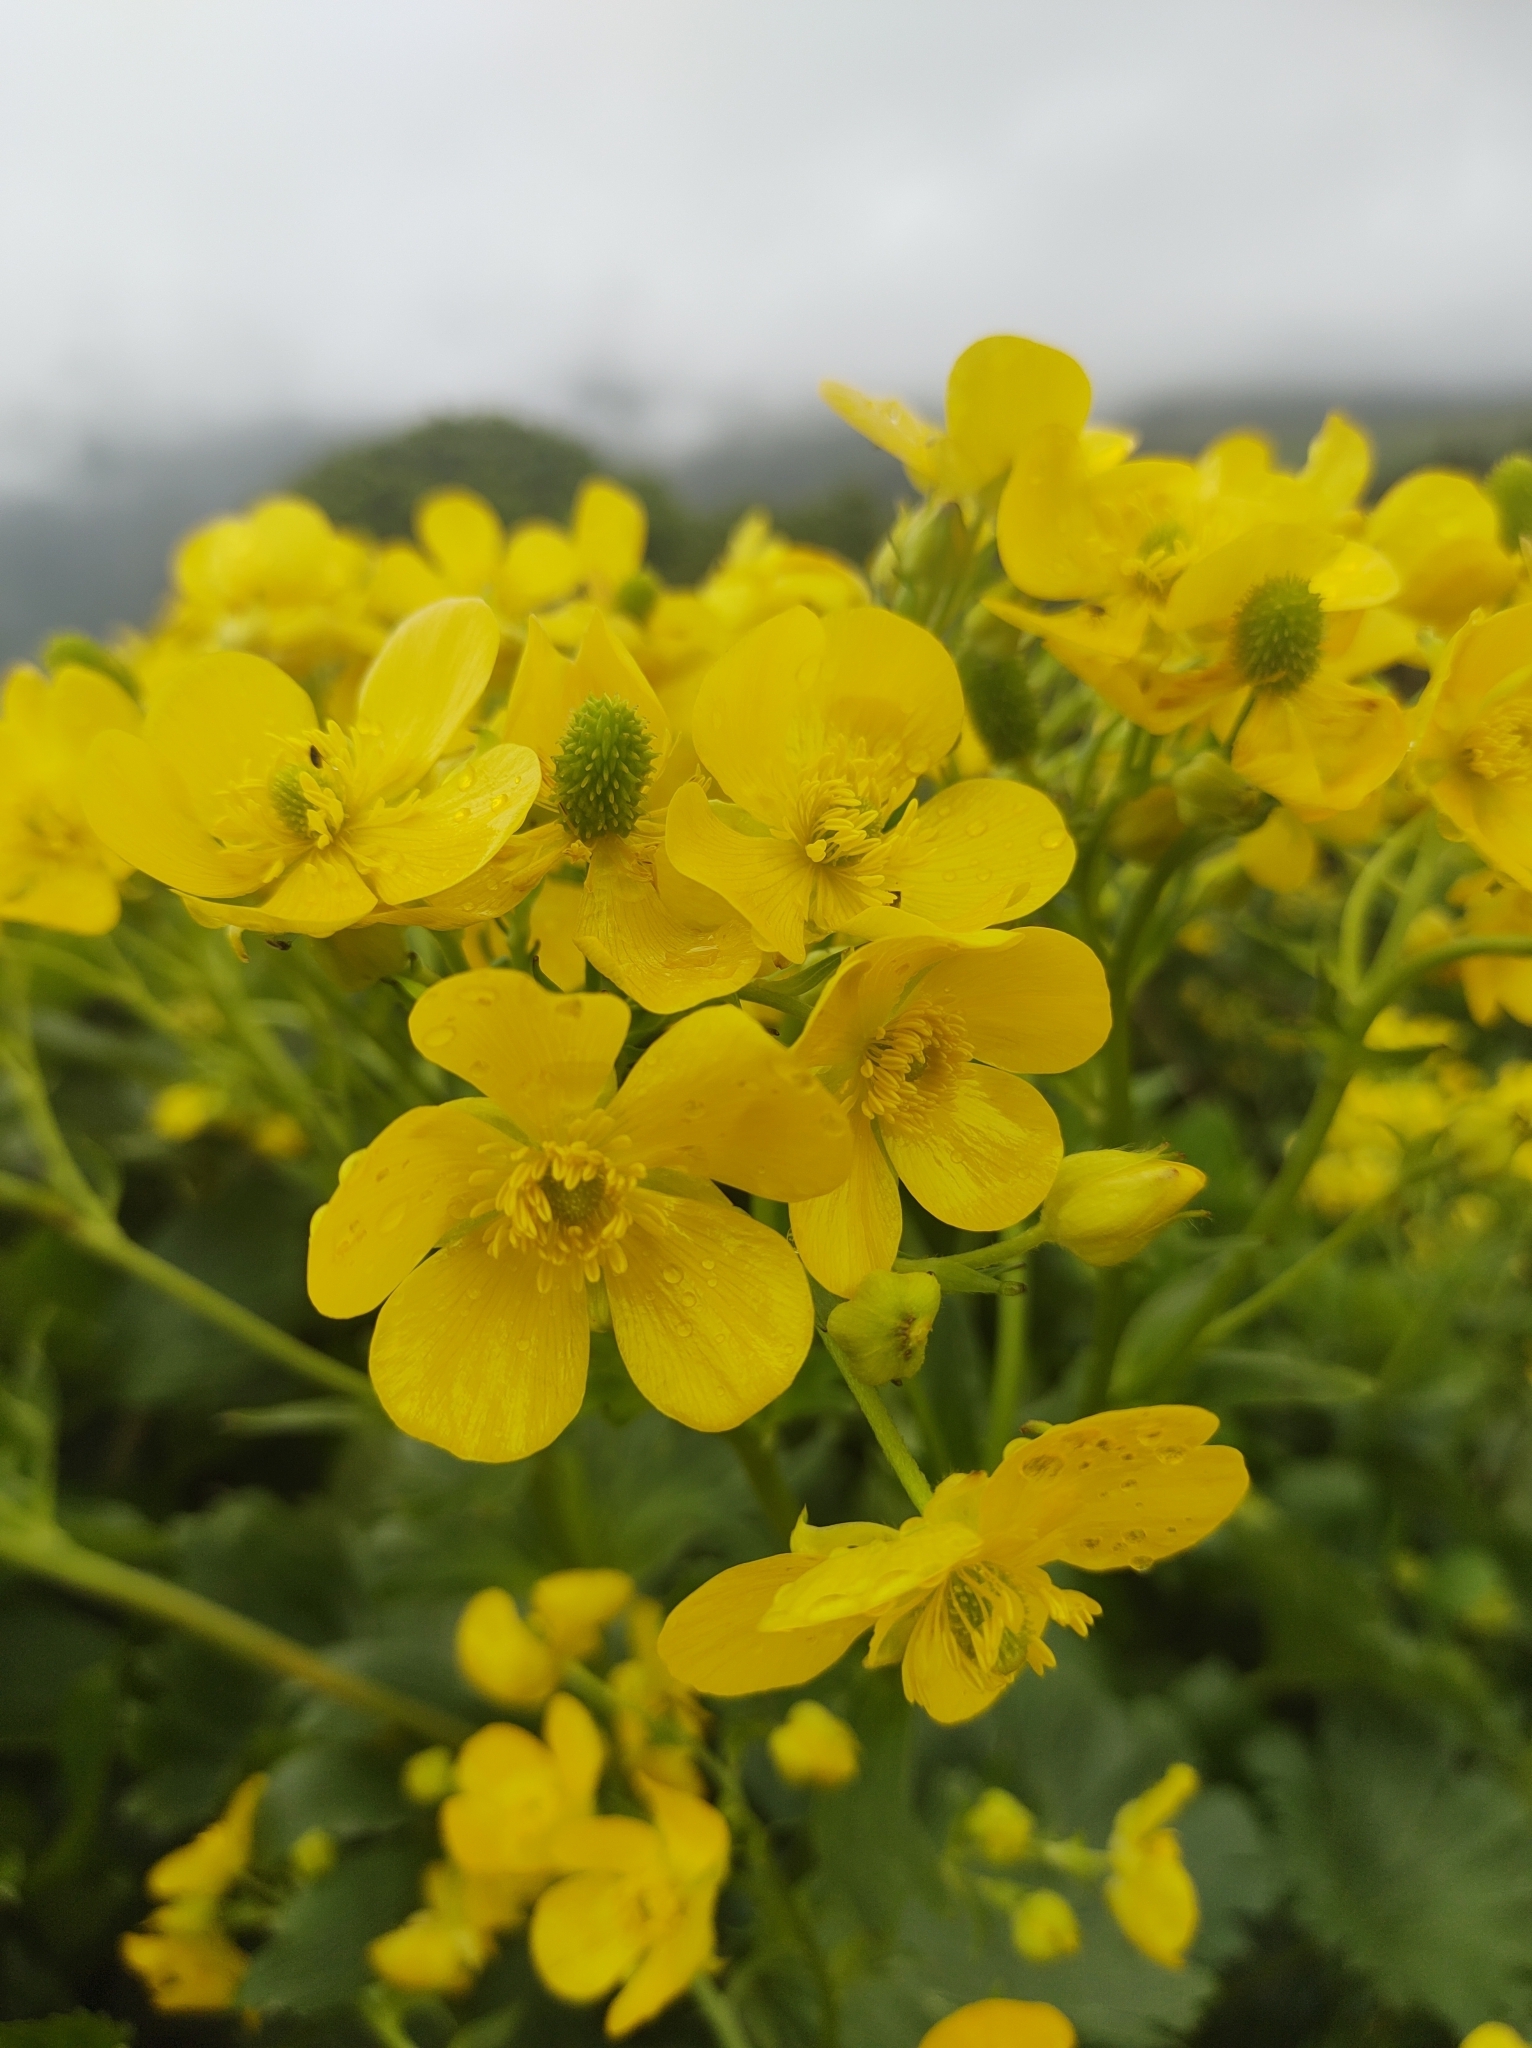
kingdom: Plantae
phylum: Tracheophyta
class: Magnoliopsida
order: Ranunculales
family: Ranunculaceae
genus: Ranunculus
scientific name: Ranunculus cortusifolius
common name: Azores buttercup
